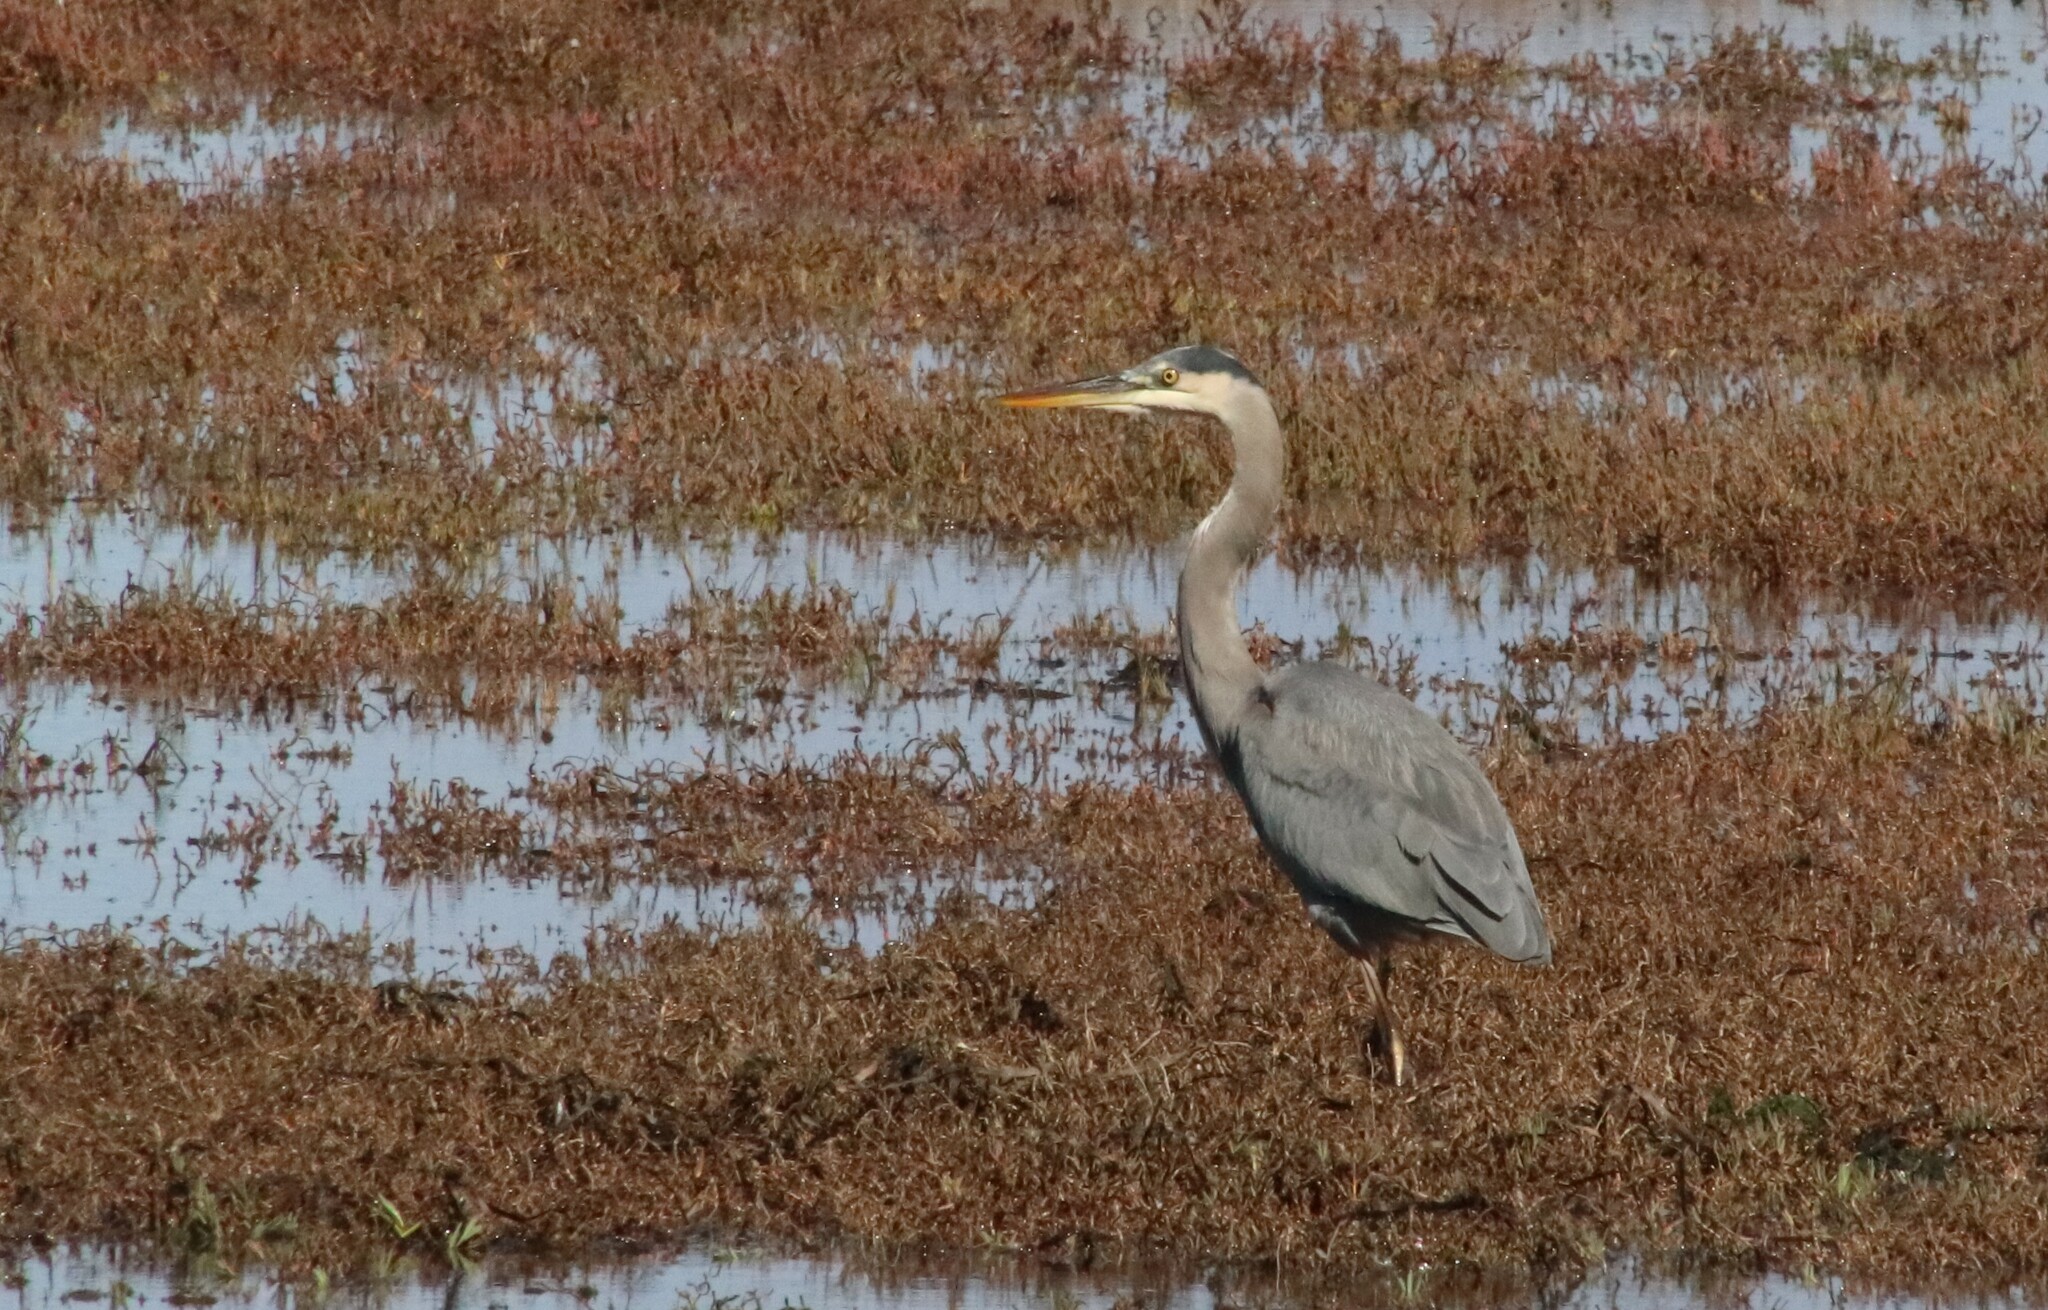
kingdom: Animalia
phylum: Chordata
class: Aves
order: Pelecaniformes
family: Ardeidae
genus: Ardea
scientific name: Ardea herodias
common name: Great blue heron
